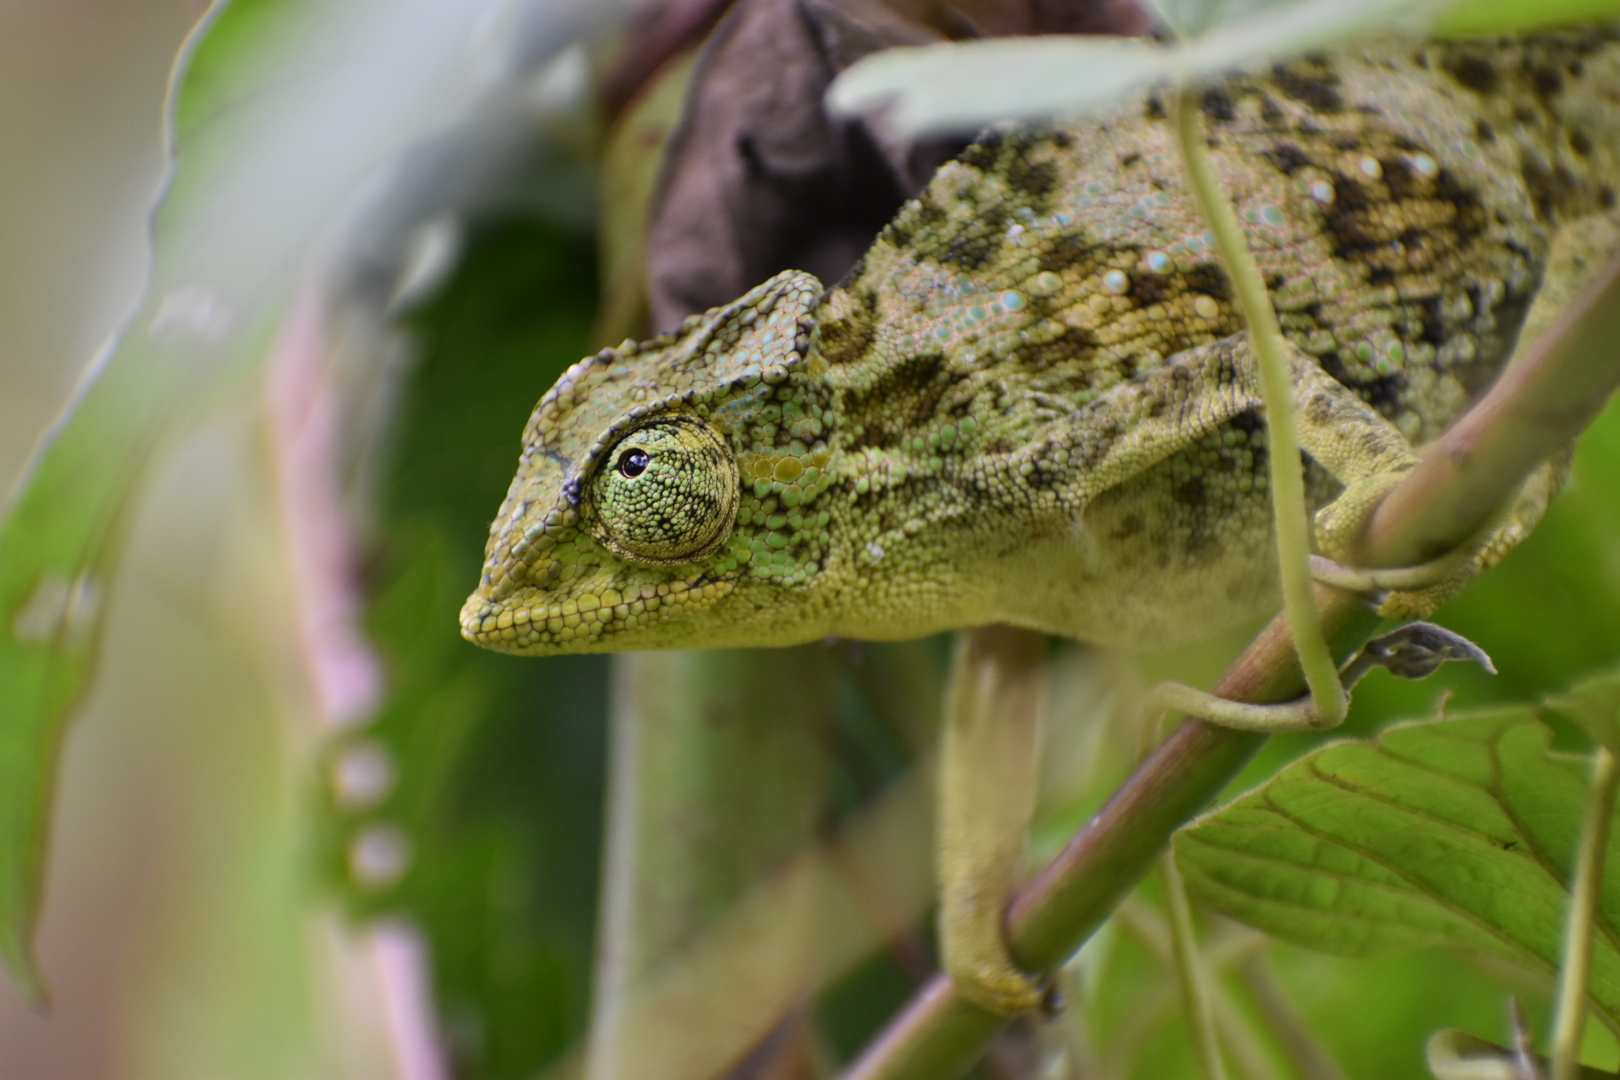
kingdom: Animalia
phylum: Chordata
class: Squamata
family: Chamaeleonidae
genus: Trioceros
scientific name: Trioceros johnstoni
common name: Johnston's chameleon
